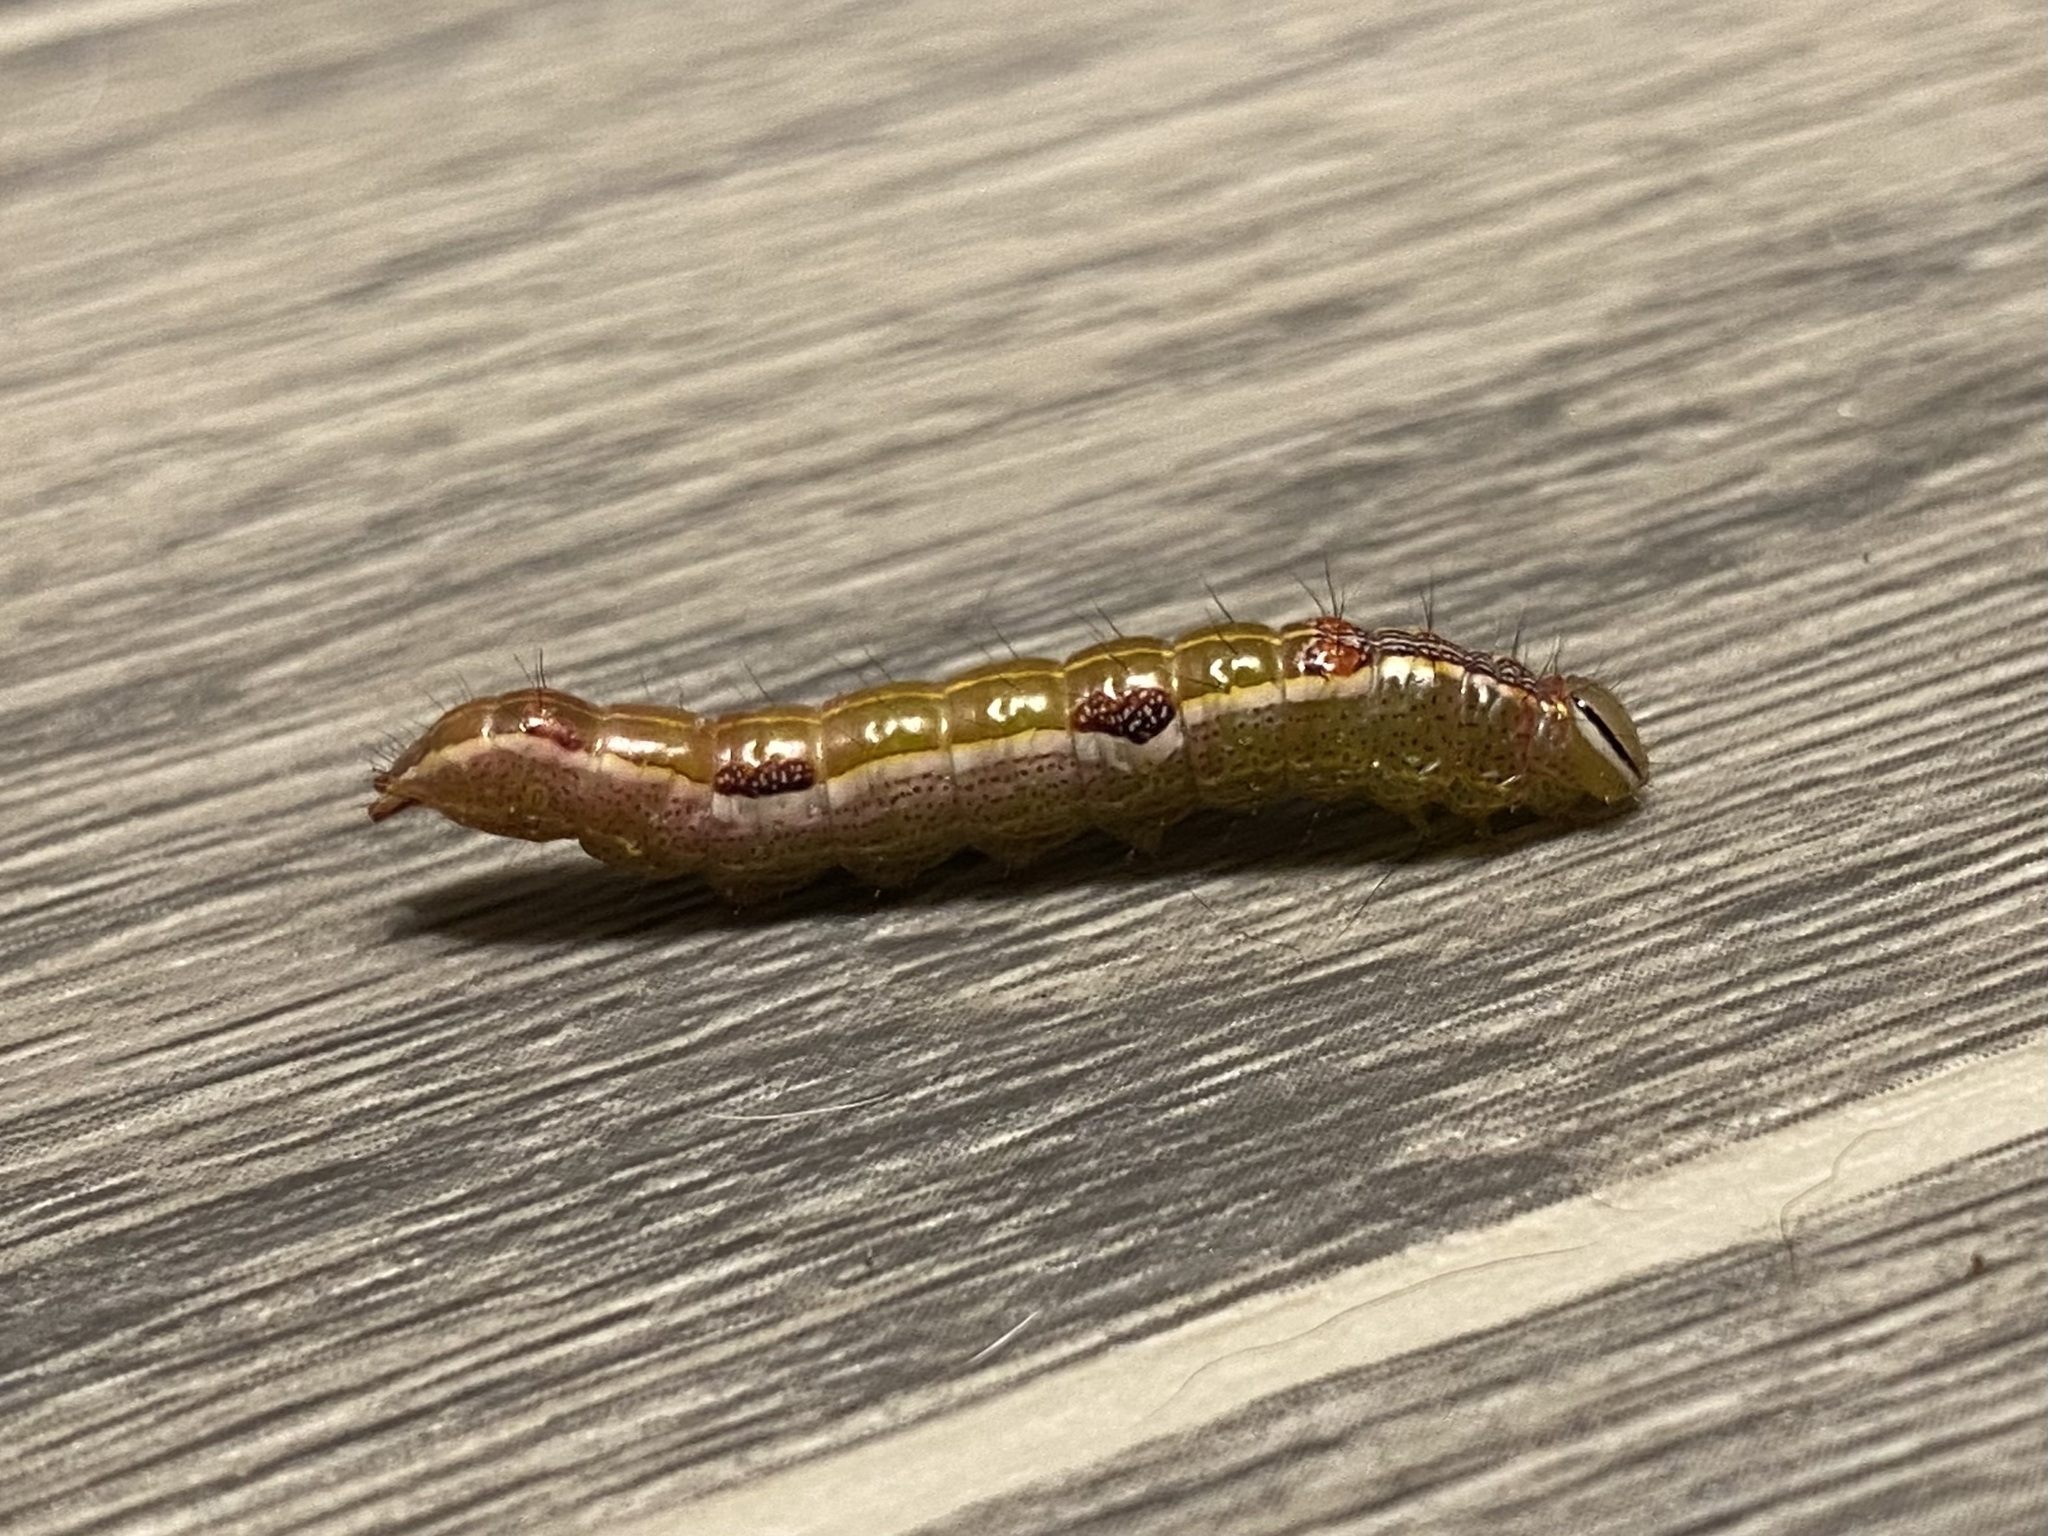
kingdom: Animalia
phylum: Arthropoda
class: Insecta
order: Lepidoptera
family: Notodontidae
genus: Lochmaeus
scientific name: Lochmaeus manteo
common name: Variable oakleaf caterpillar moth
